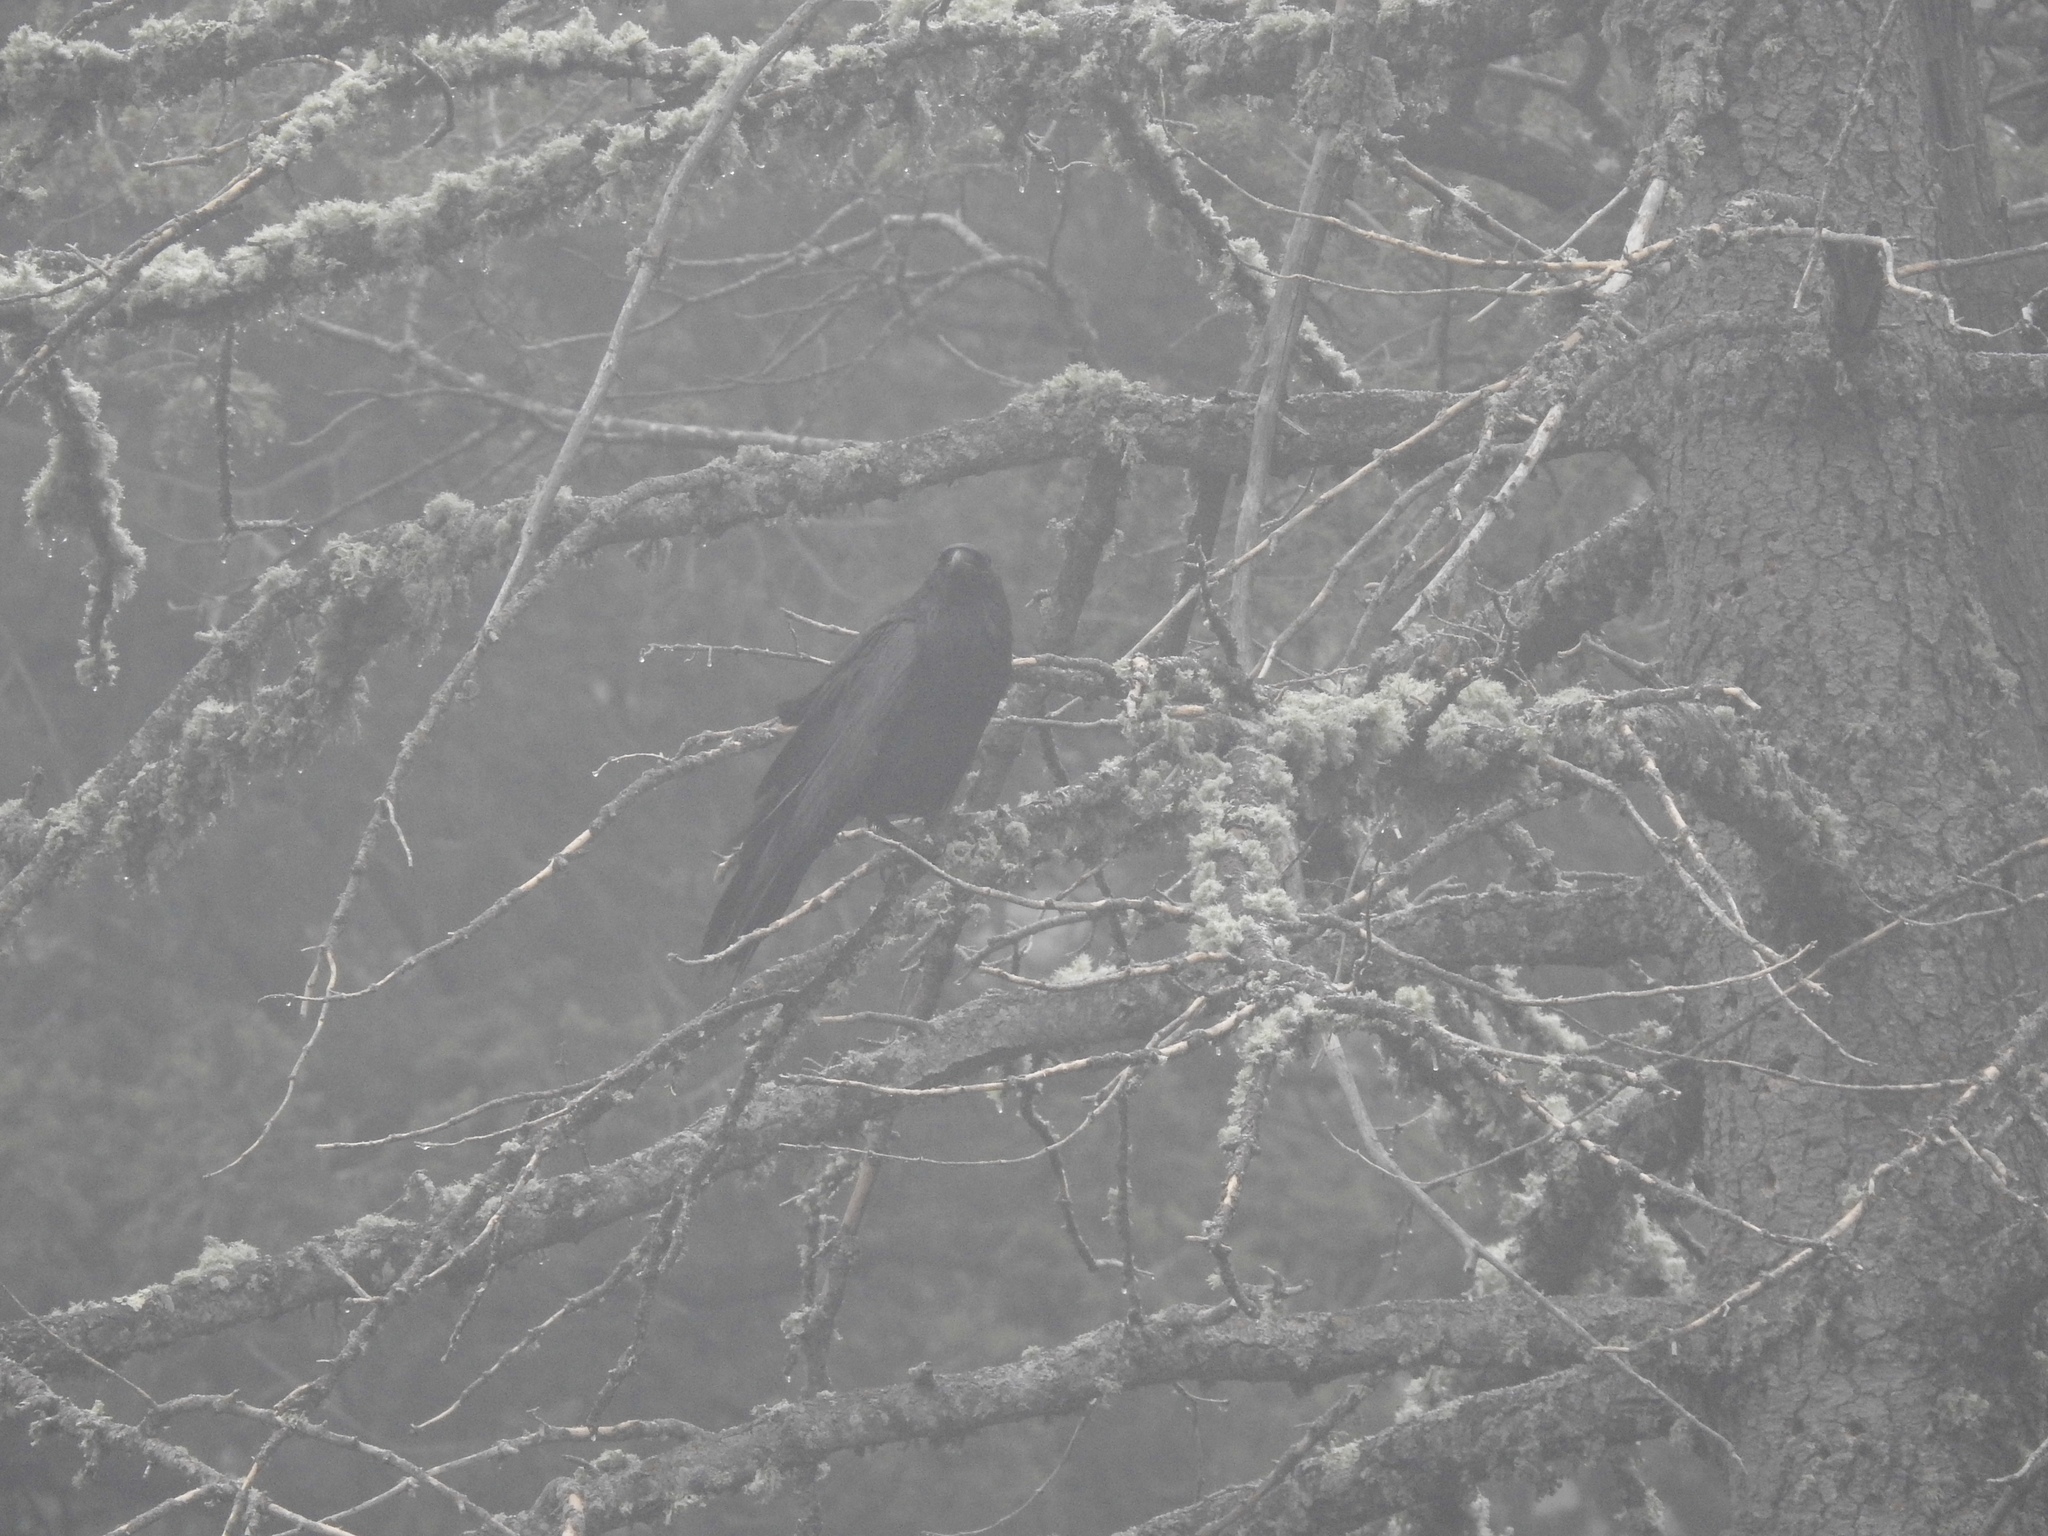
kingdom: Animalia
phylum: Chordata
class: Aves
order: Passeriformes
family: Corvidae
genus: Corvus
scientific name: Corvus corax
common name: Common raven
